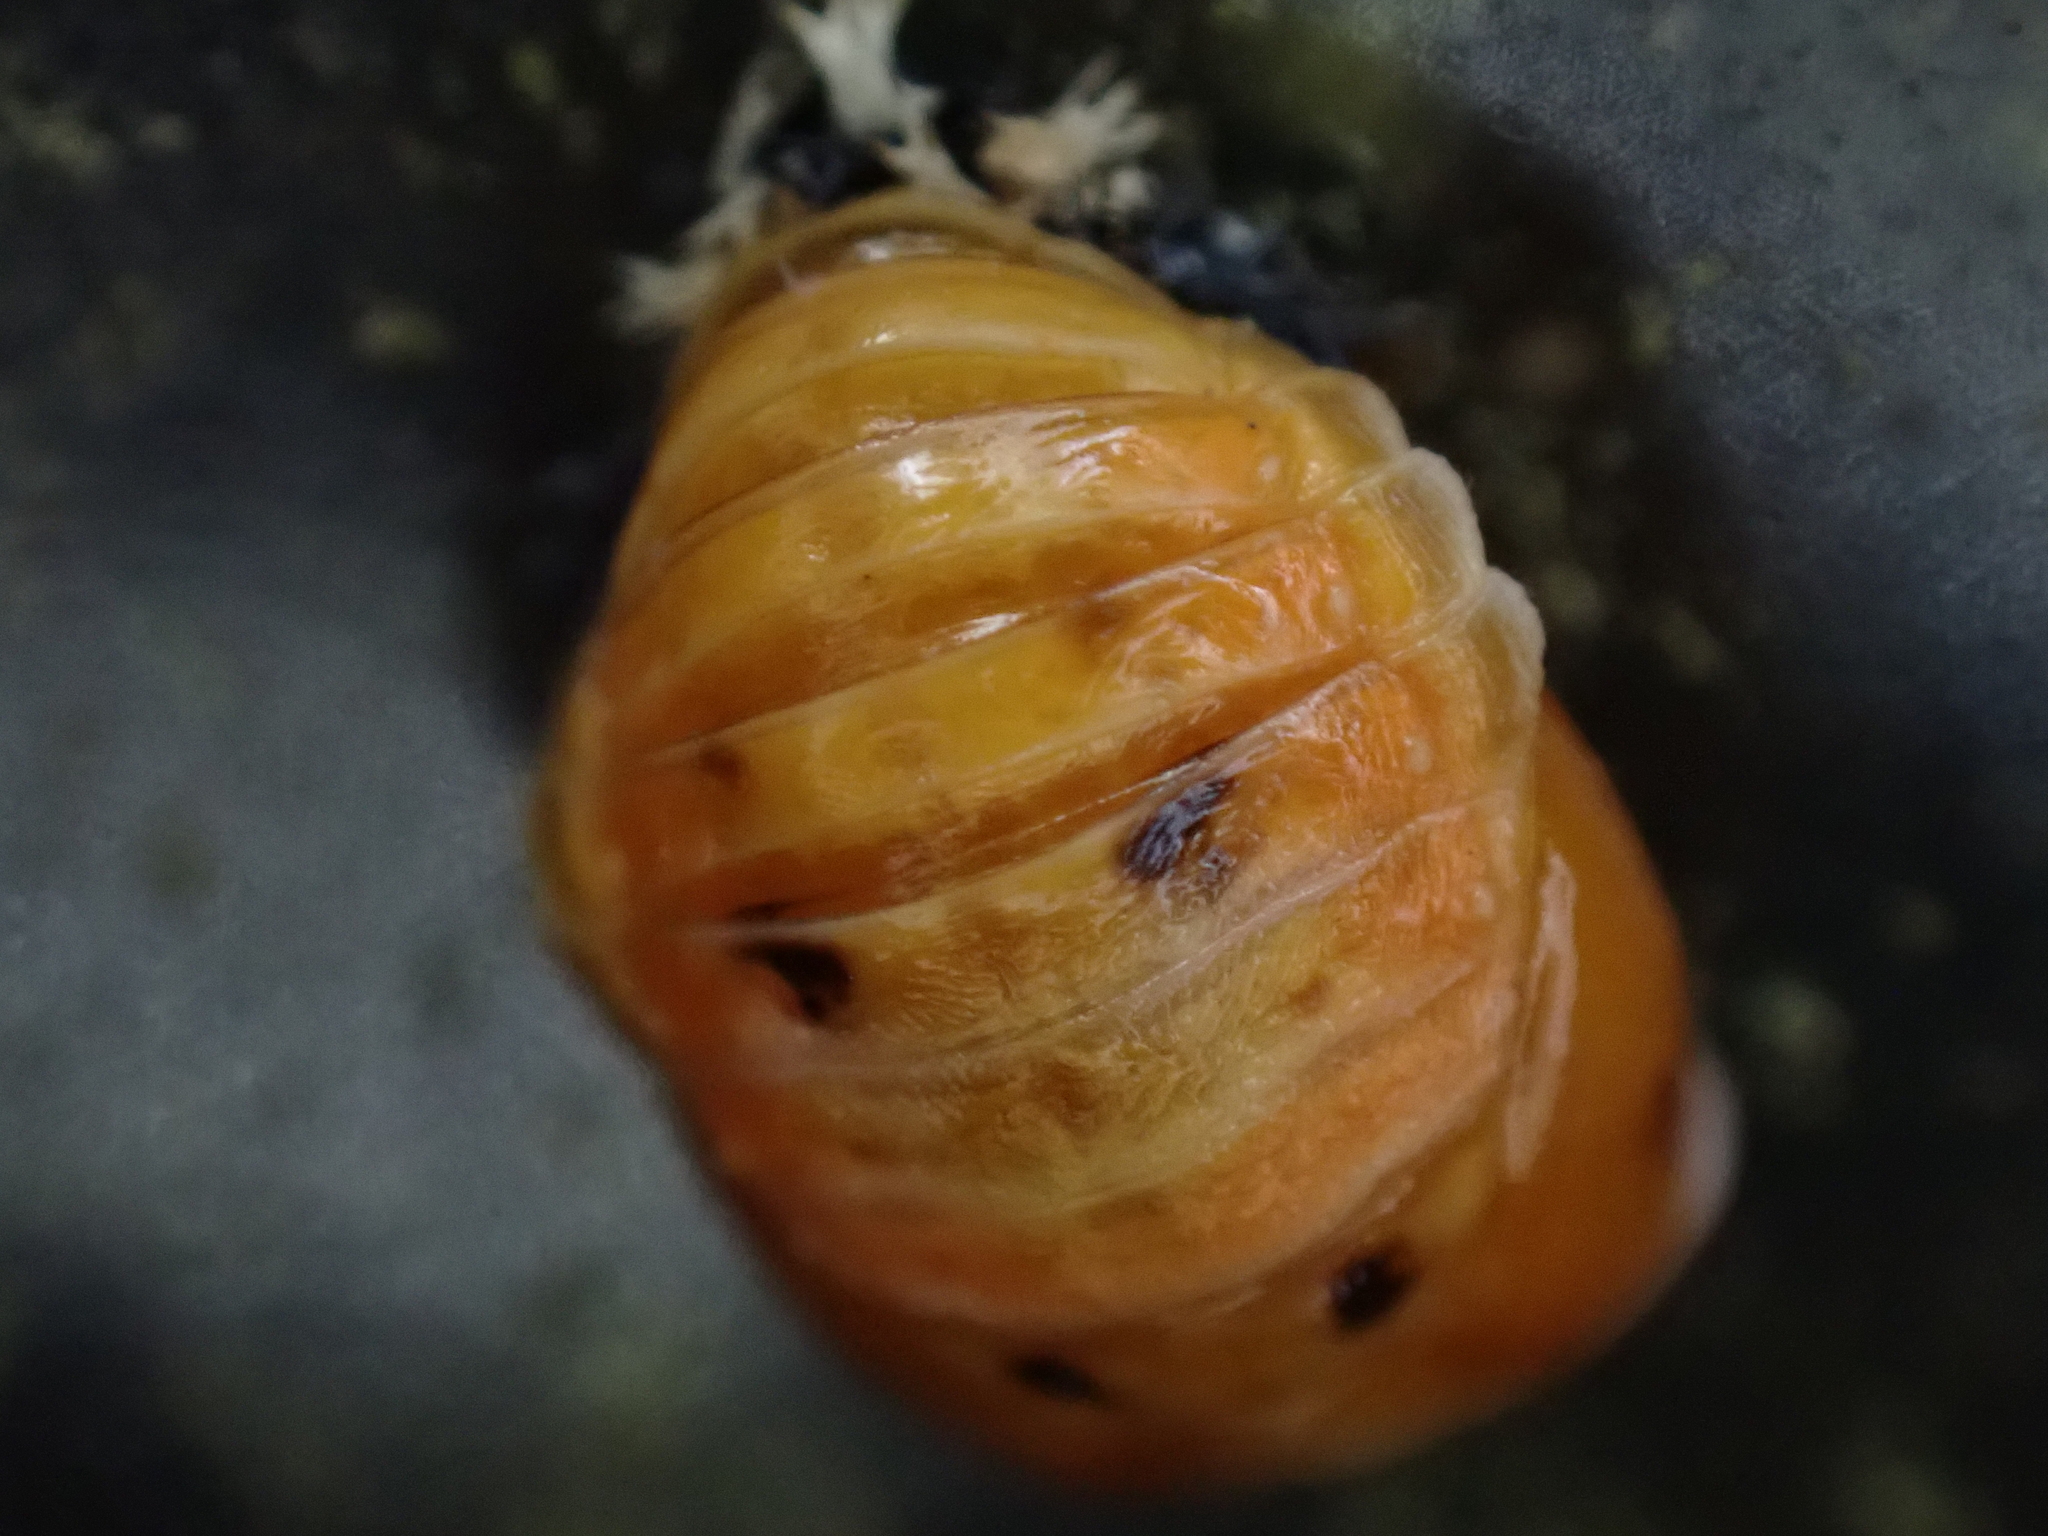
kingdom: Animalia
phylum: Arthropoda
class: Insecta
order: Coleoptera
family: Coccinellidae
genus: Harmonia
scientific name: Harmonia axyridis
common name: Harlequin ladybird
